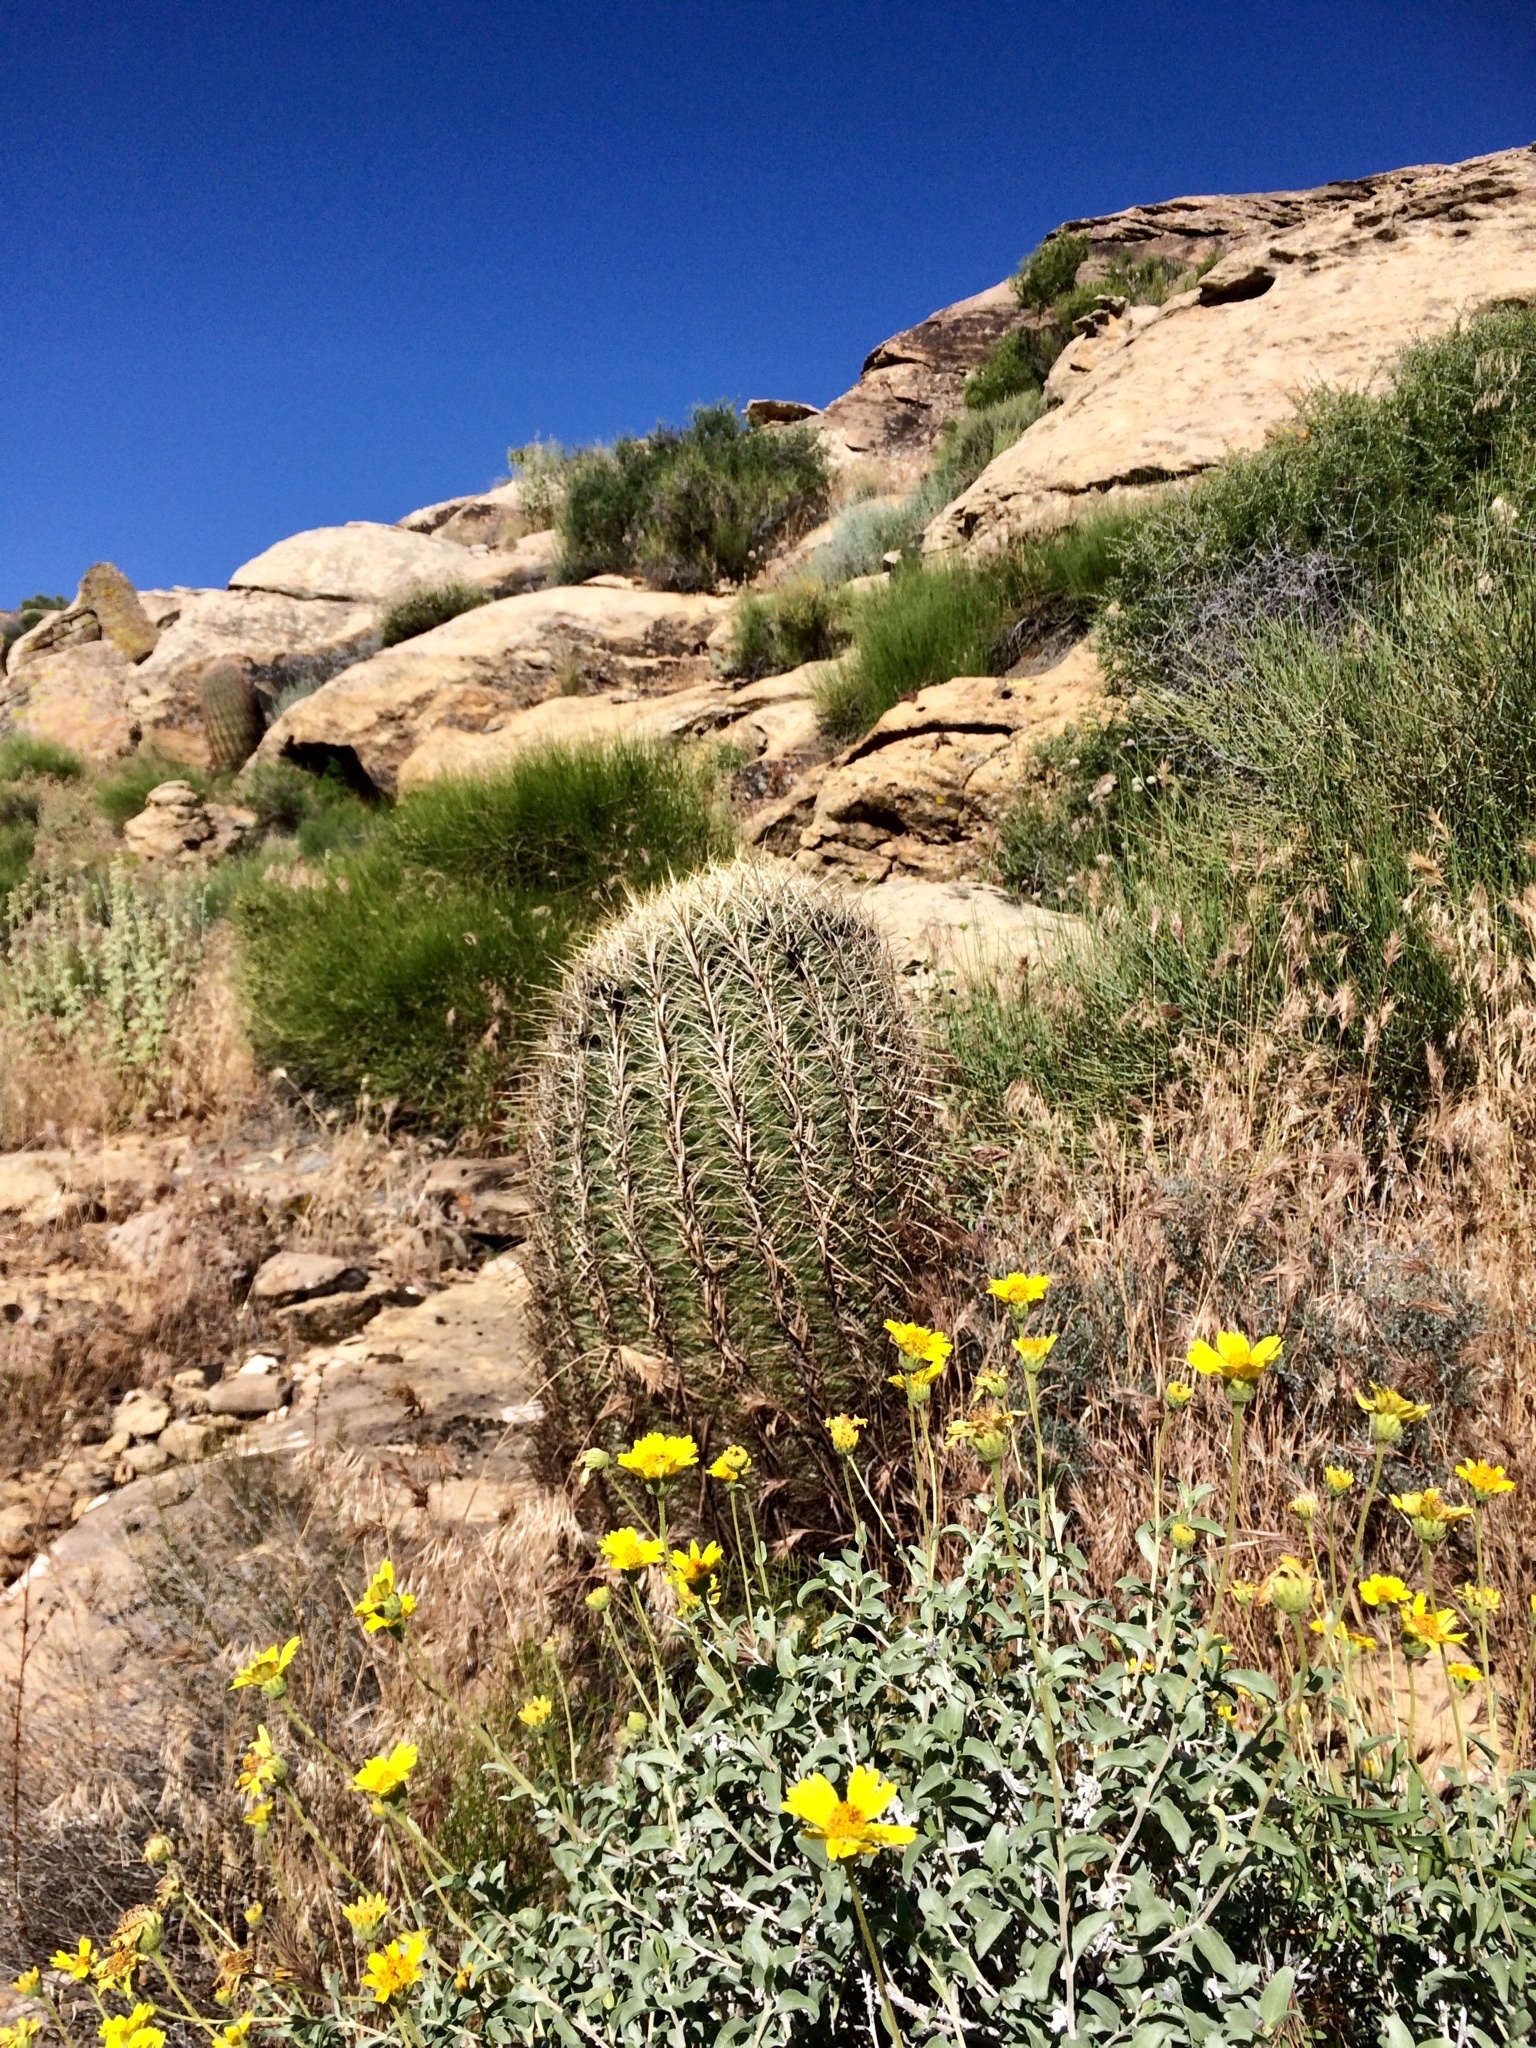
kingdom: Plantae
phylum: Tracheophyta
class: Magnoliopsida
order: Caryophyllales
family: Cactaceae
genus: Ferocactus
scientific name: Ferocactus cylindraceus
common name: California barrel cactus
